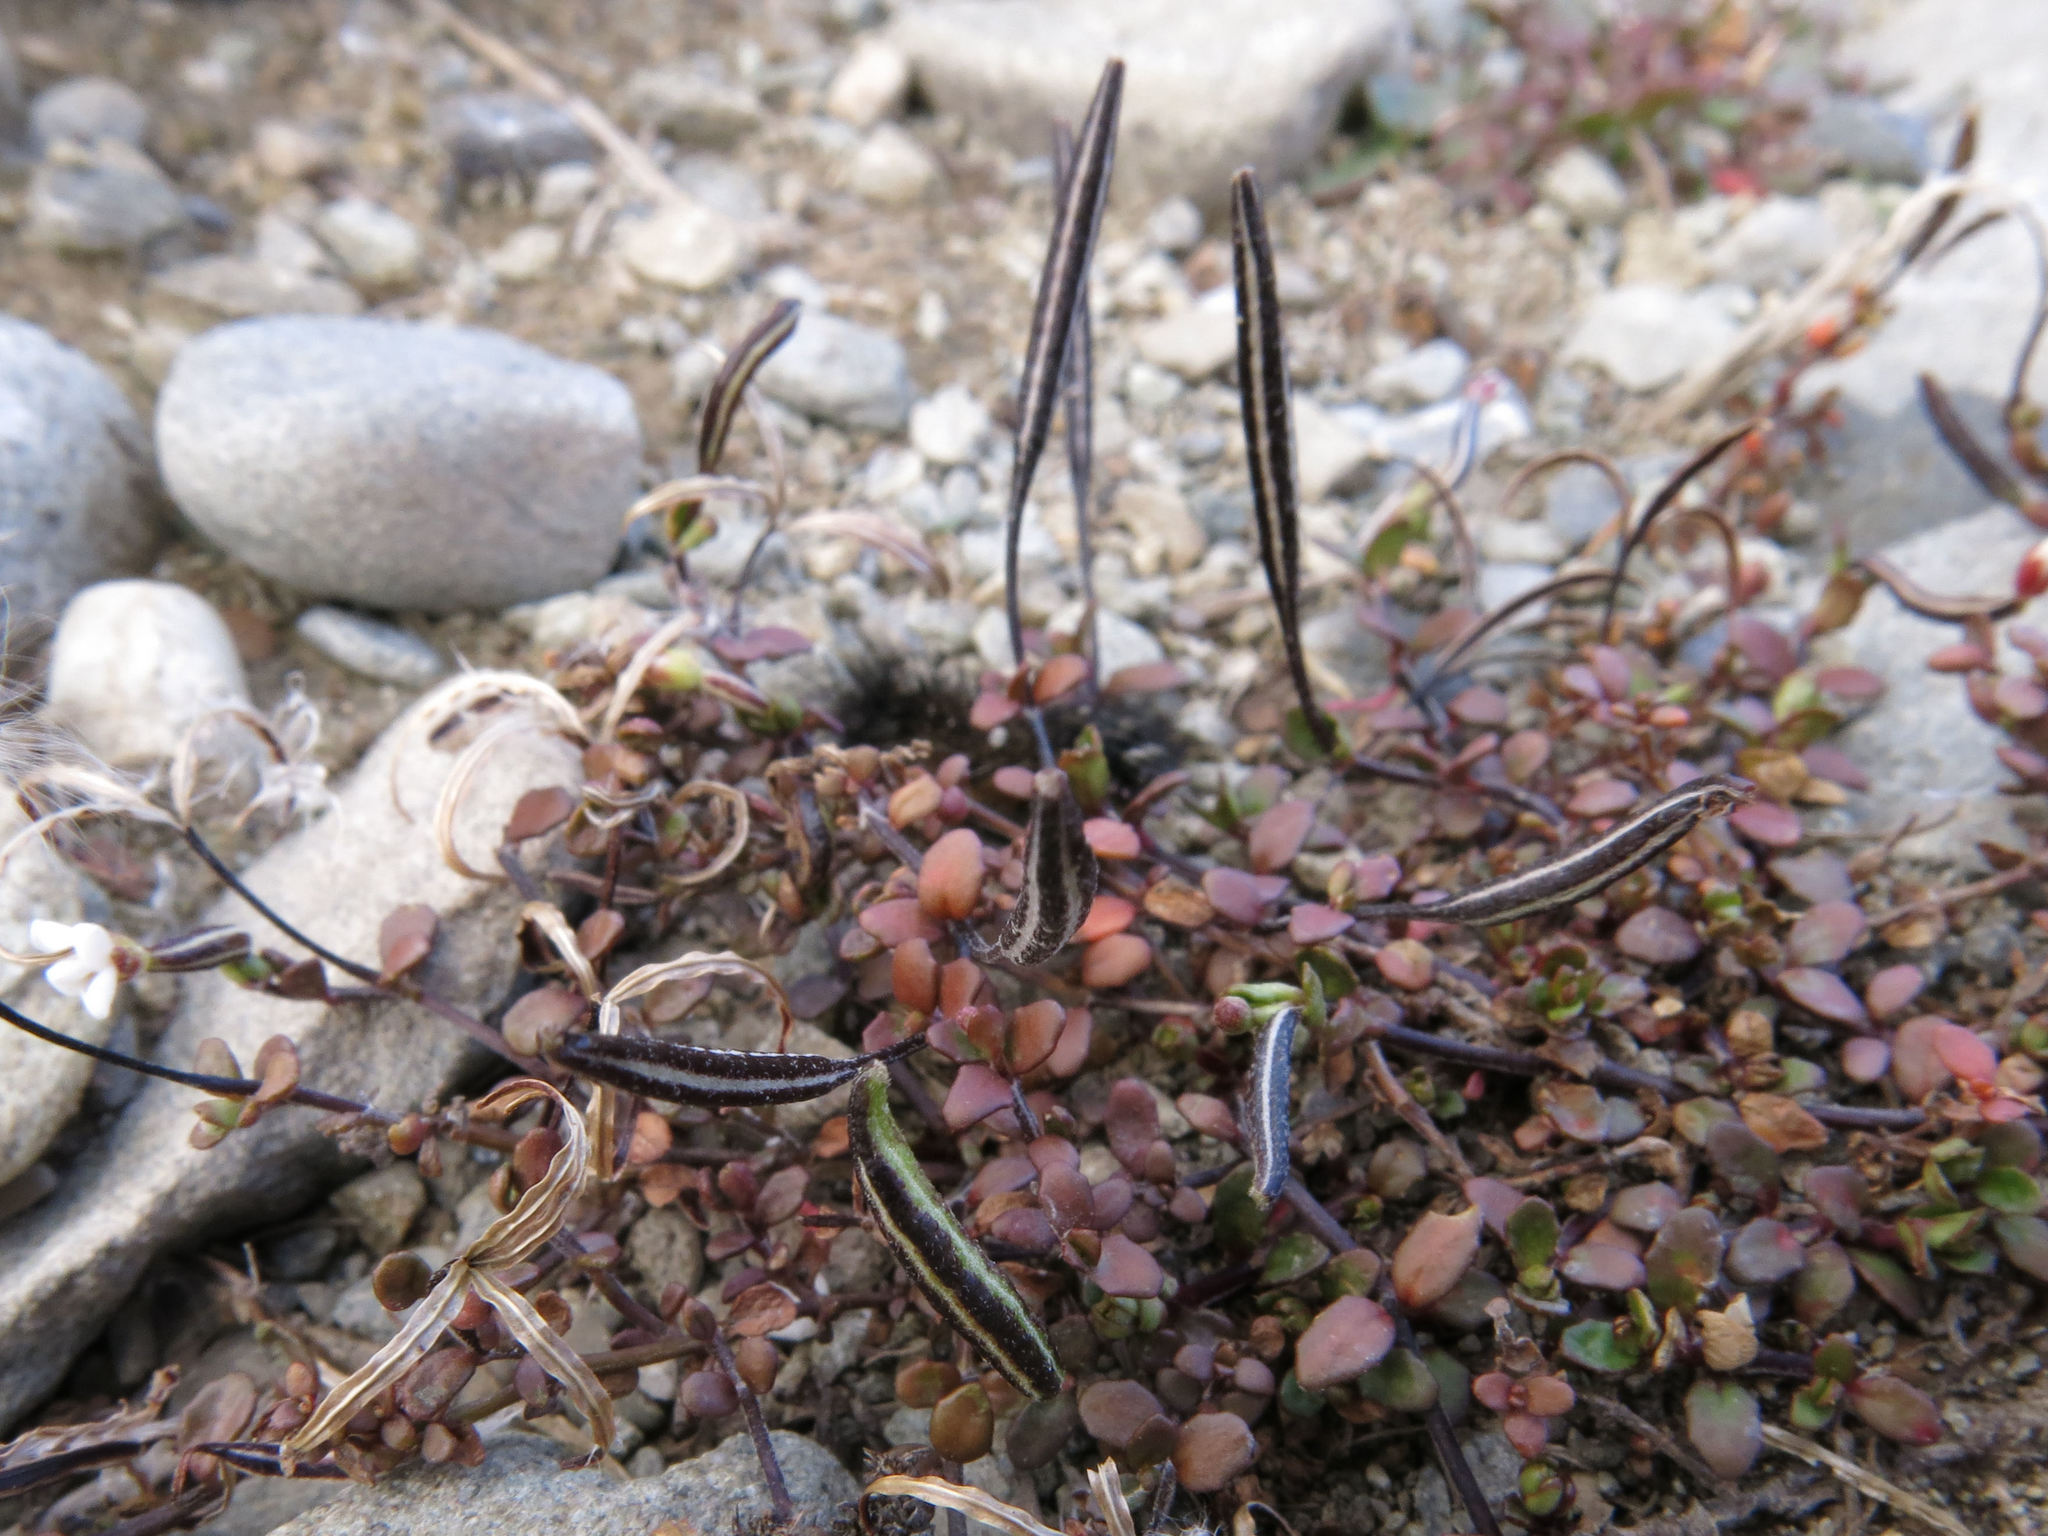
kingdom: Plantae
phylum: Tracheophyta
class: Magnoliopsida
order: Myrtales
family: Onagraceae
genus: Epilobium
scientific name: Epilobium microphyllum
